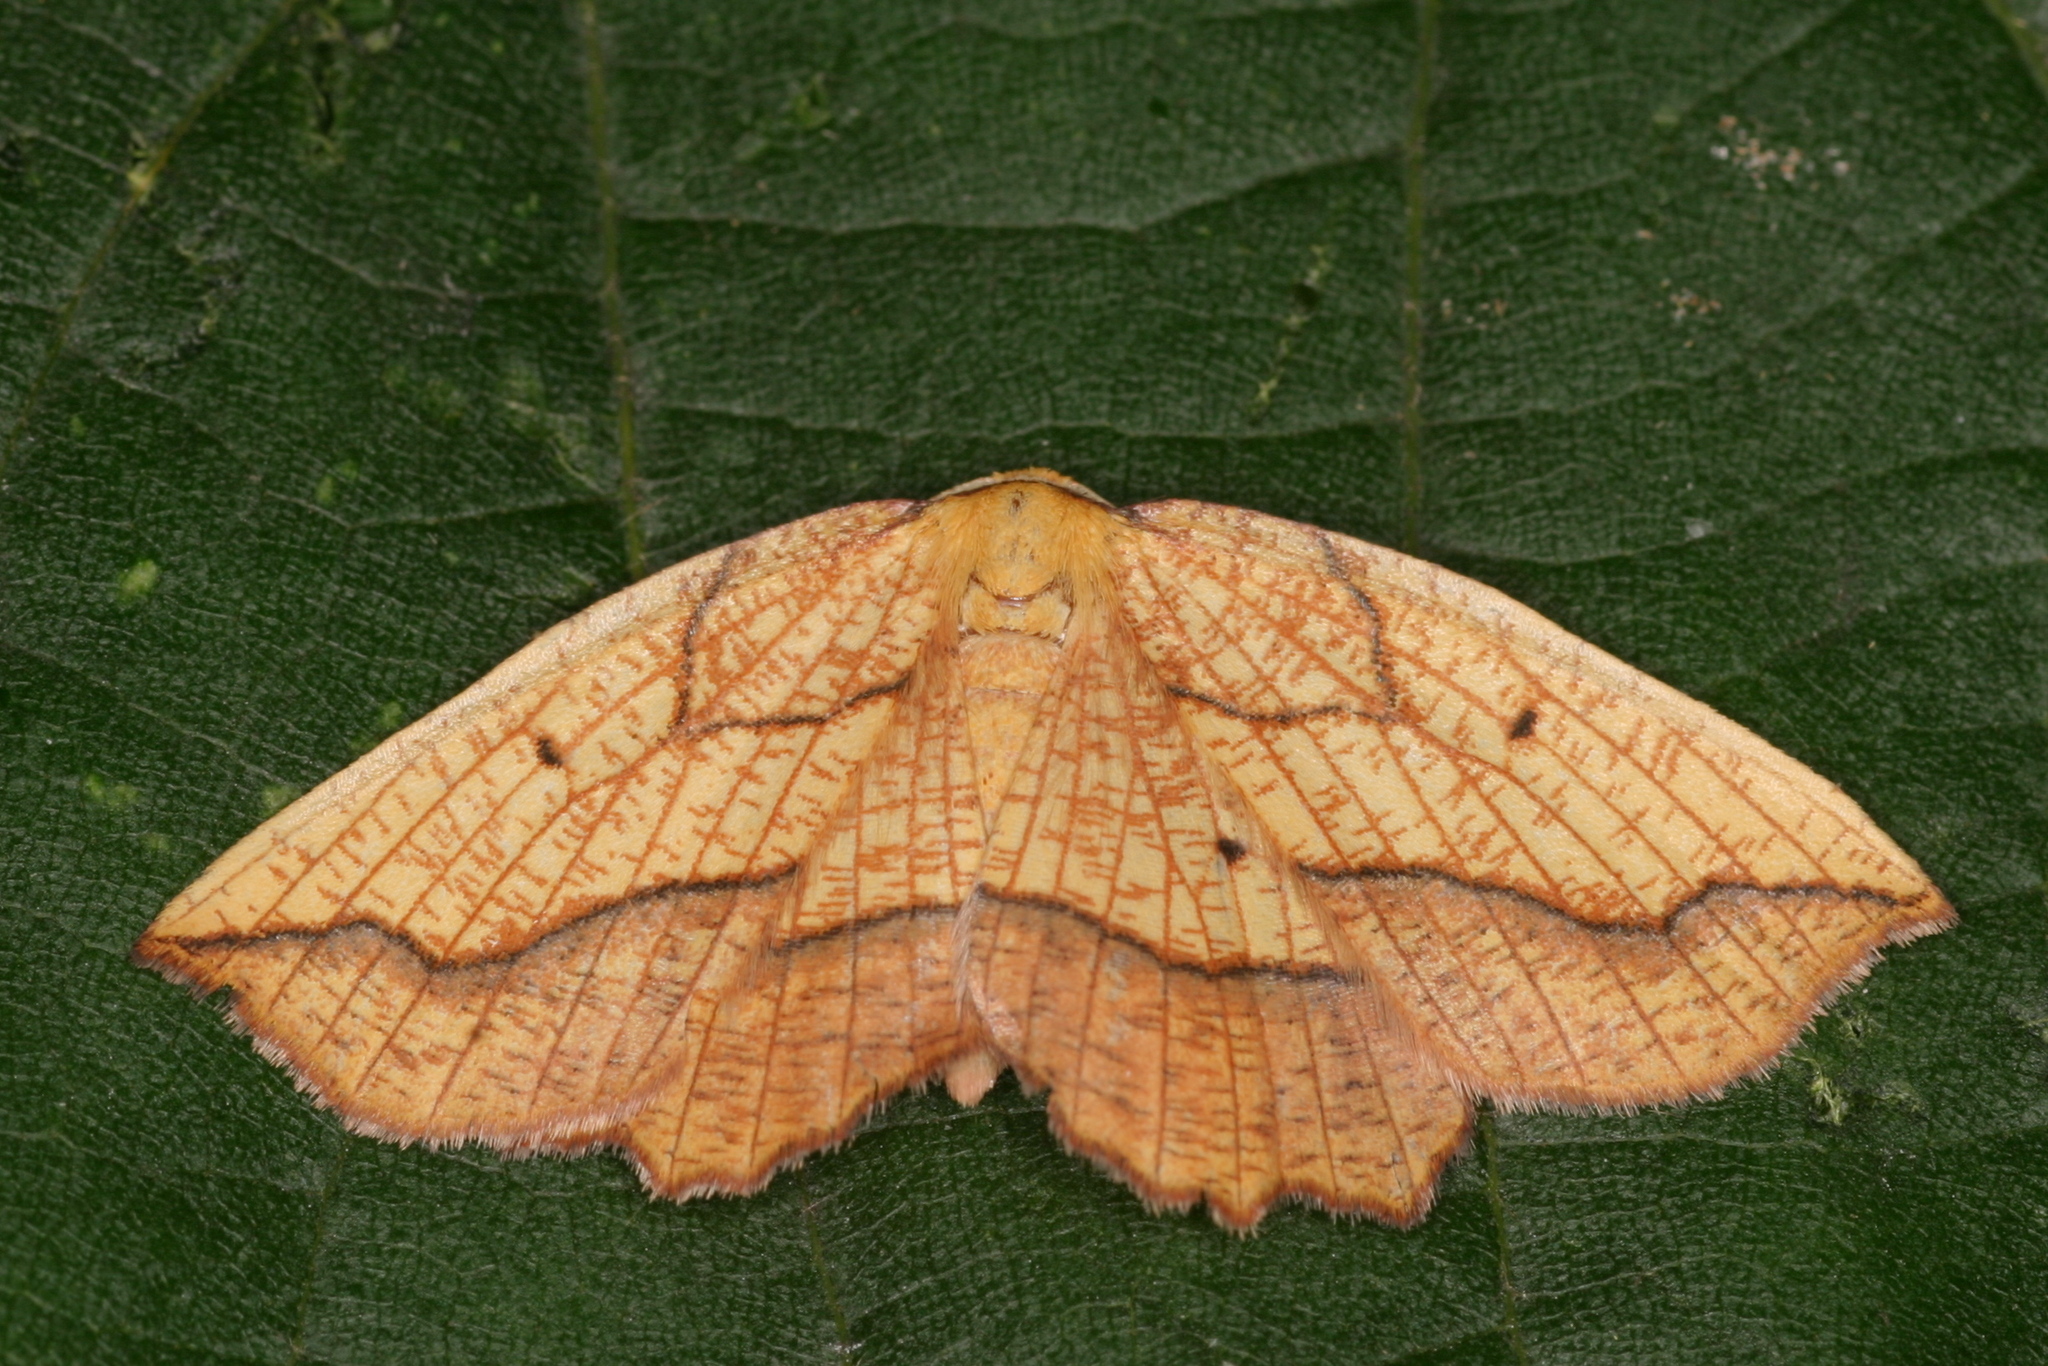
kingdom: Animalia
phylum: Arthropoda
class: Insecta
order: Lepidoptera
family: Geometridae
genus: Epione
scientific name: Epione repandaria
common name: Bordered beauty
